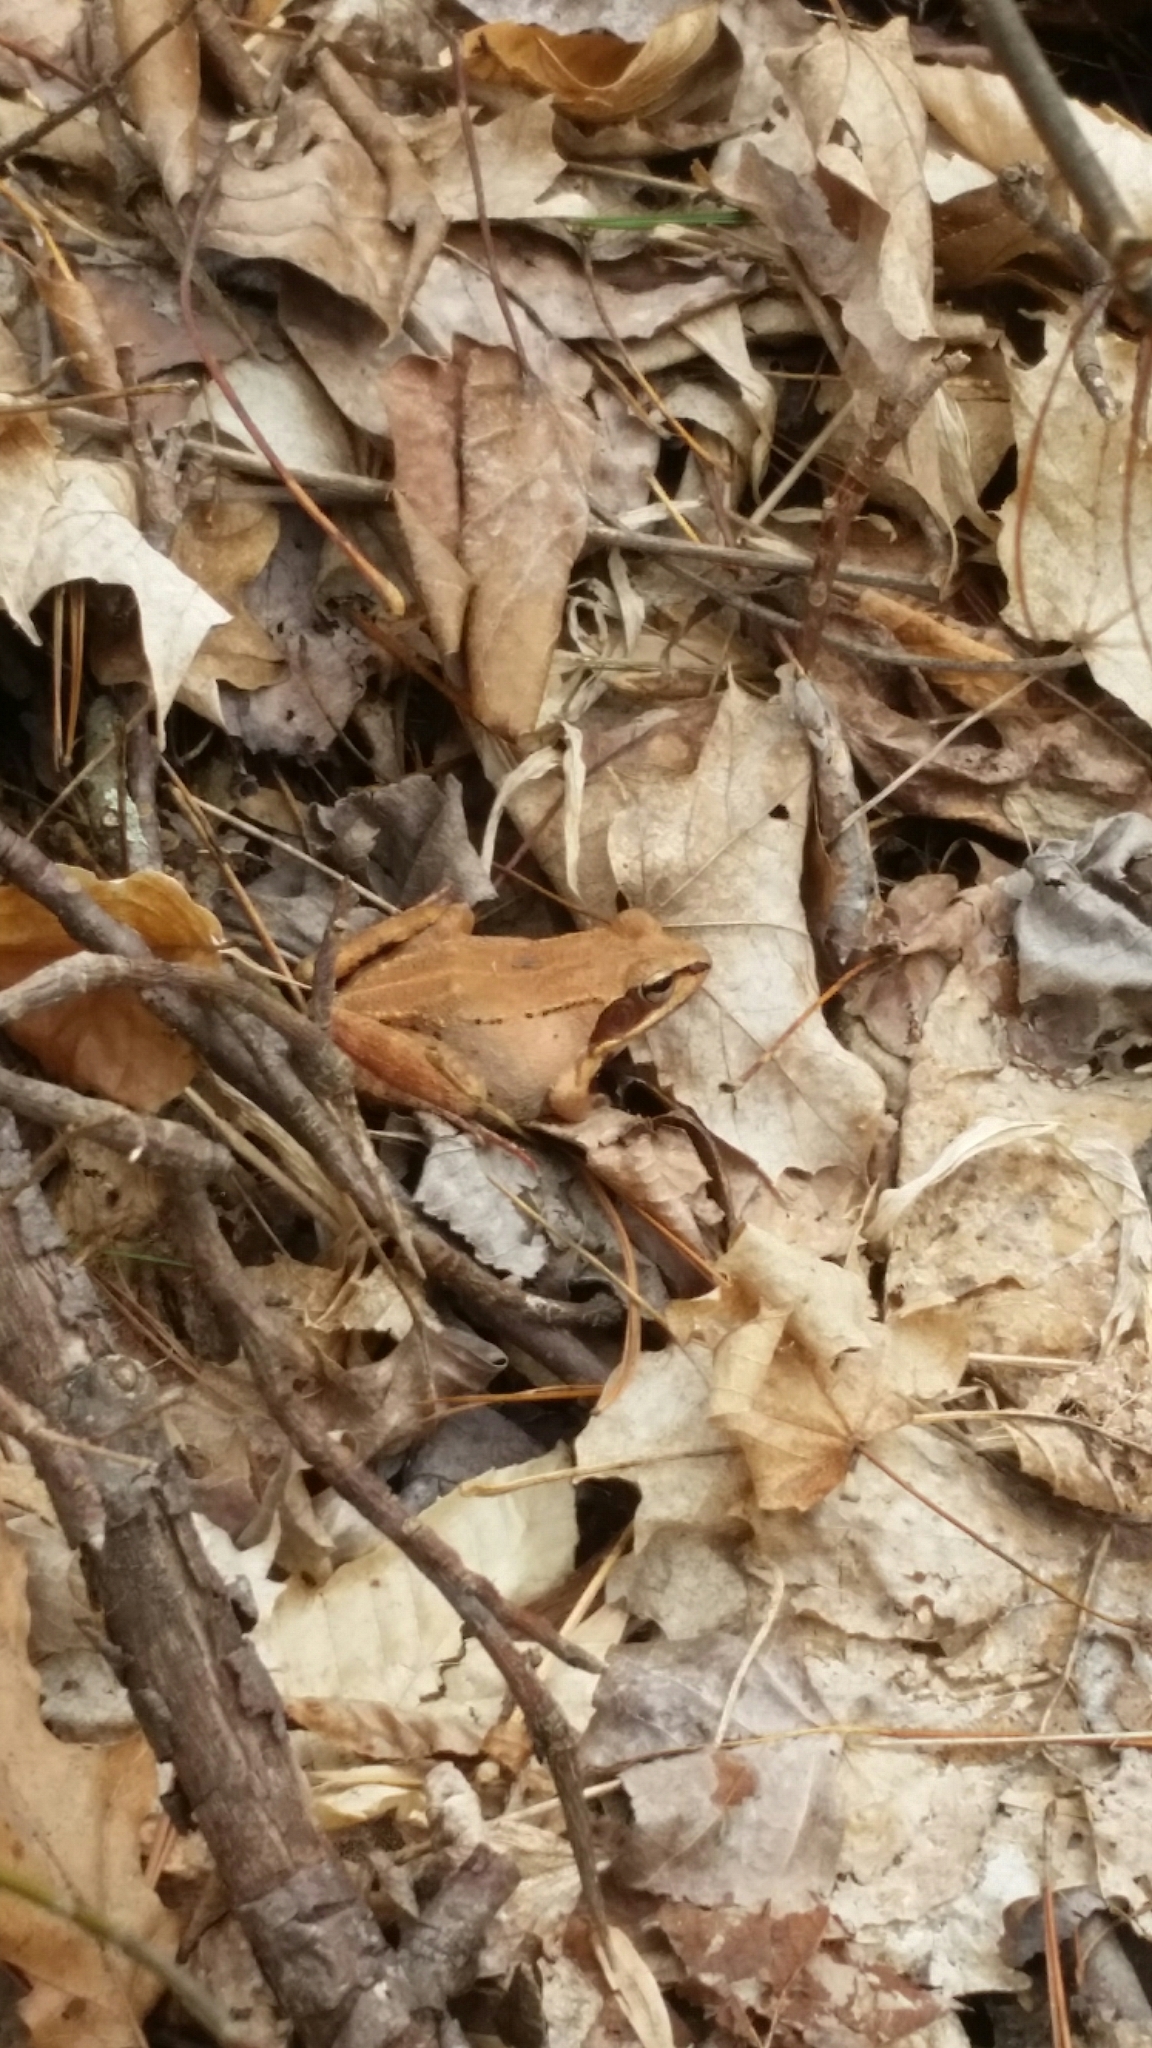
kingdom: Animalia
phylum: Chordata
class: Amphibia
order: Anura
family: Ranidae
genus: Lithobates
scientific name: Lithobates sylvaticus
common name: Wood frog
